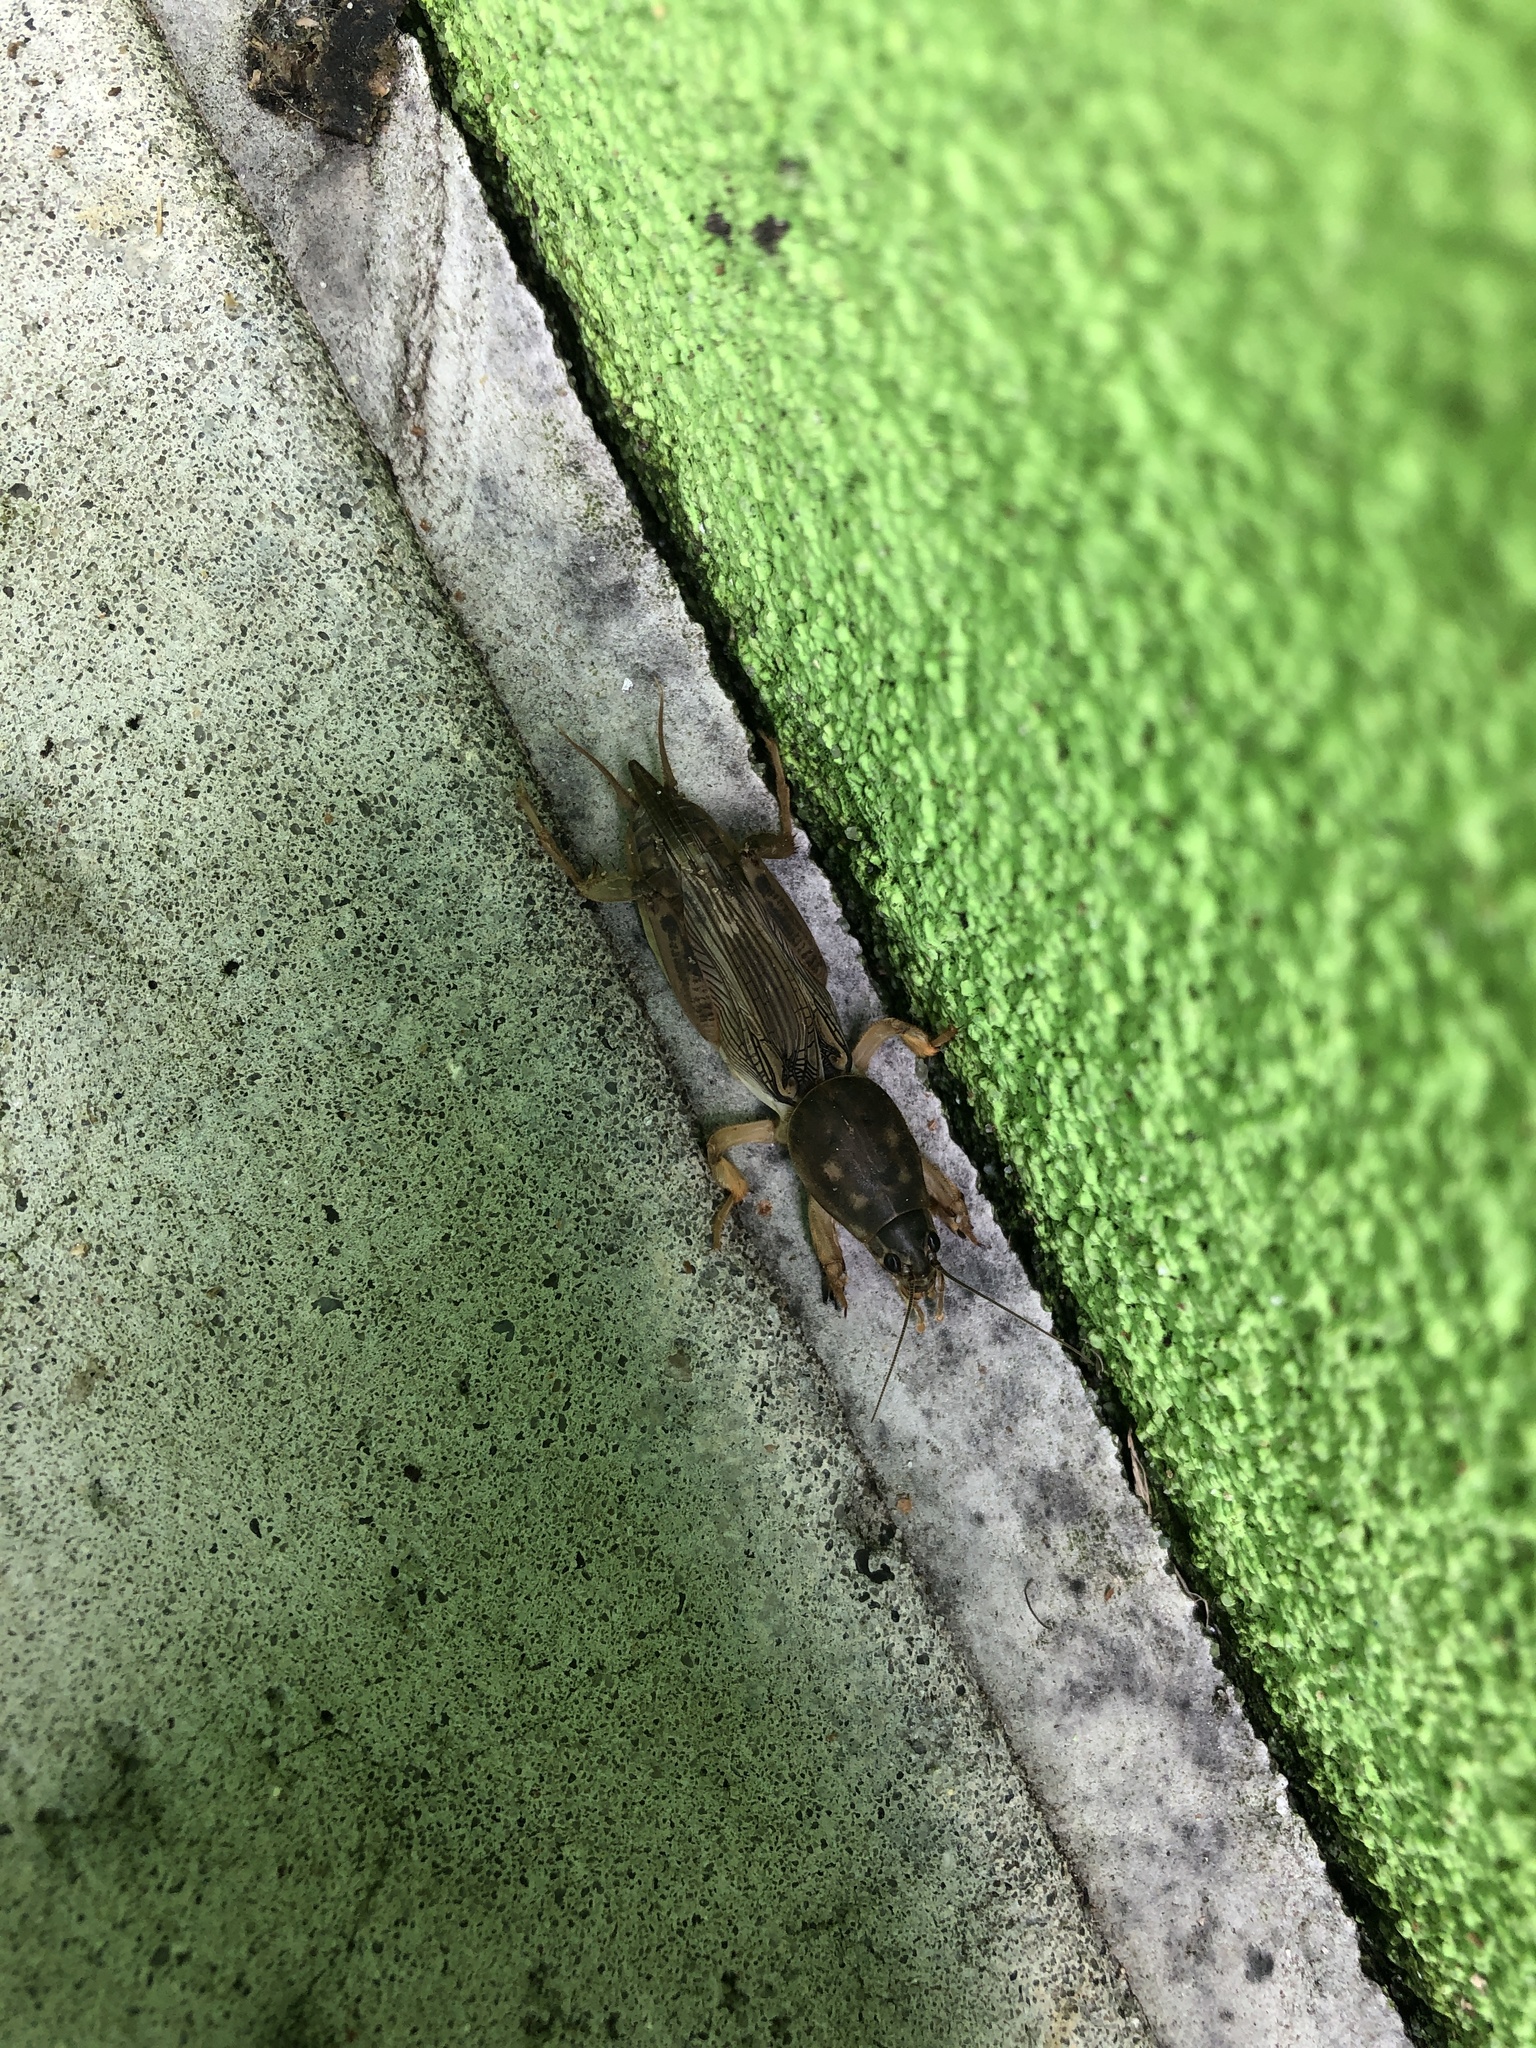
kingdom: Animalia
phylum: Arthropoda
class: Insecta
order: Orthoptera
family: Gryllotalpidae
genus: Neoscapteriscus
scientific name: Neoscapteriscus borellii
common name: Southern mole cricket
